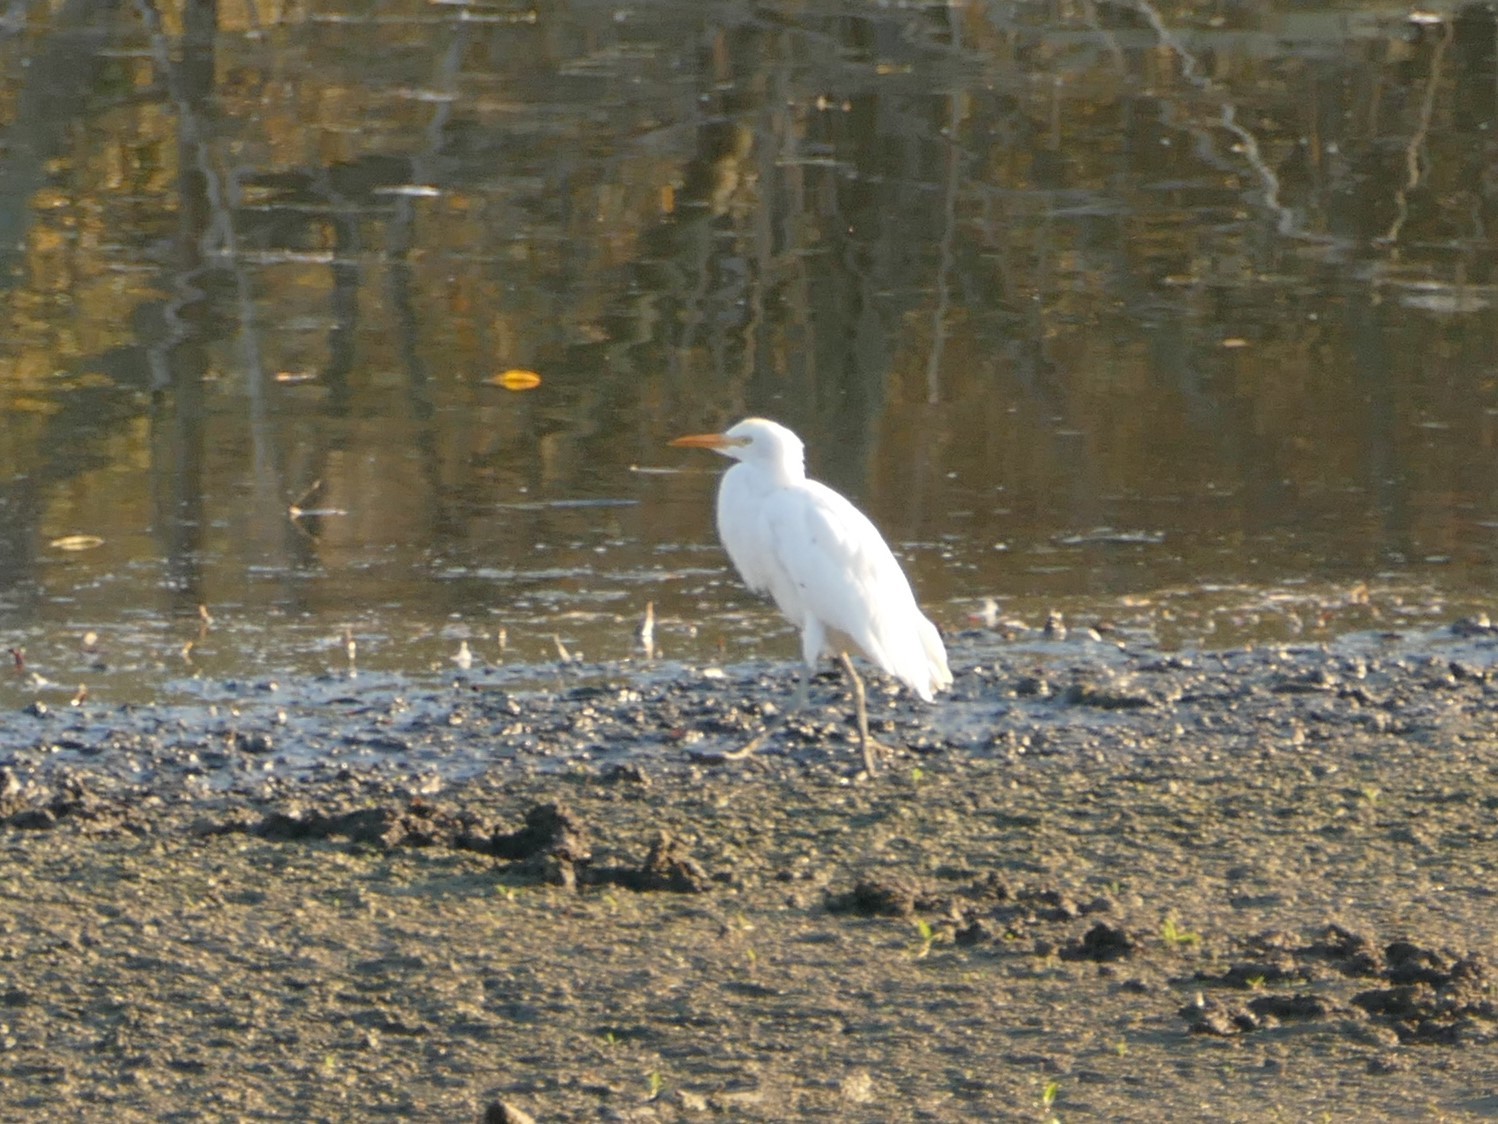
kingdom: Animalia
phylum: Chordata
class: Aves
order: Pelecaniformes
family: Ardeidae
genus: Bubulcus
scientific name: Bubulcus ibis
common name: Cattle egret
